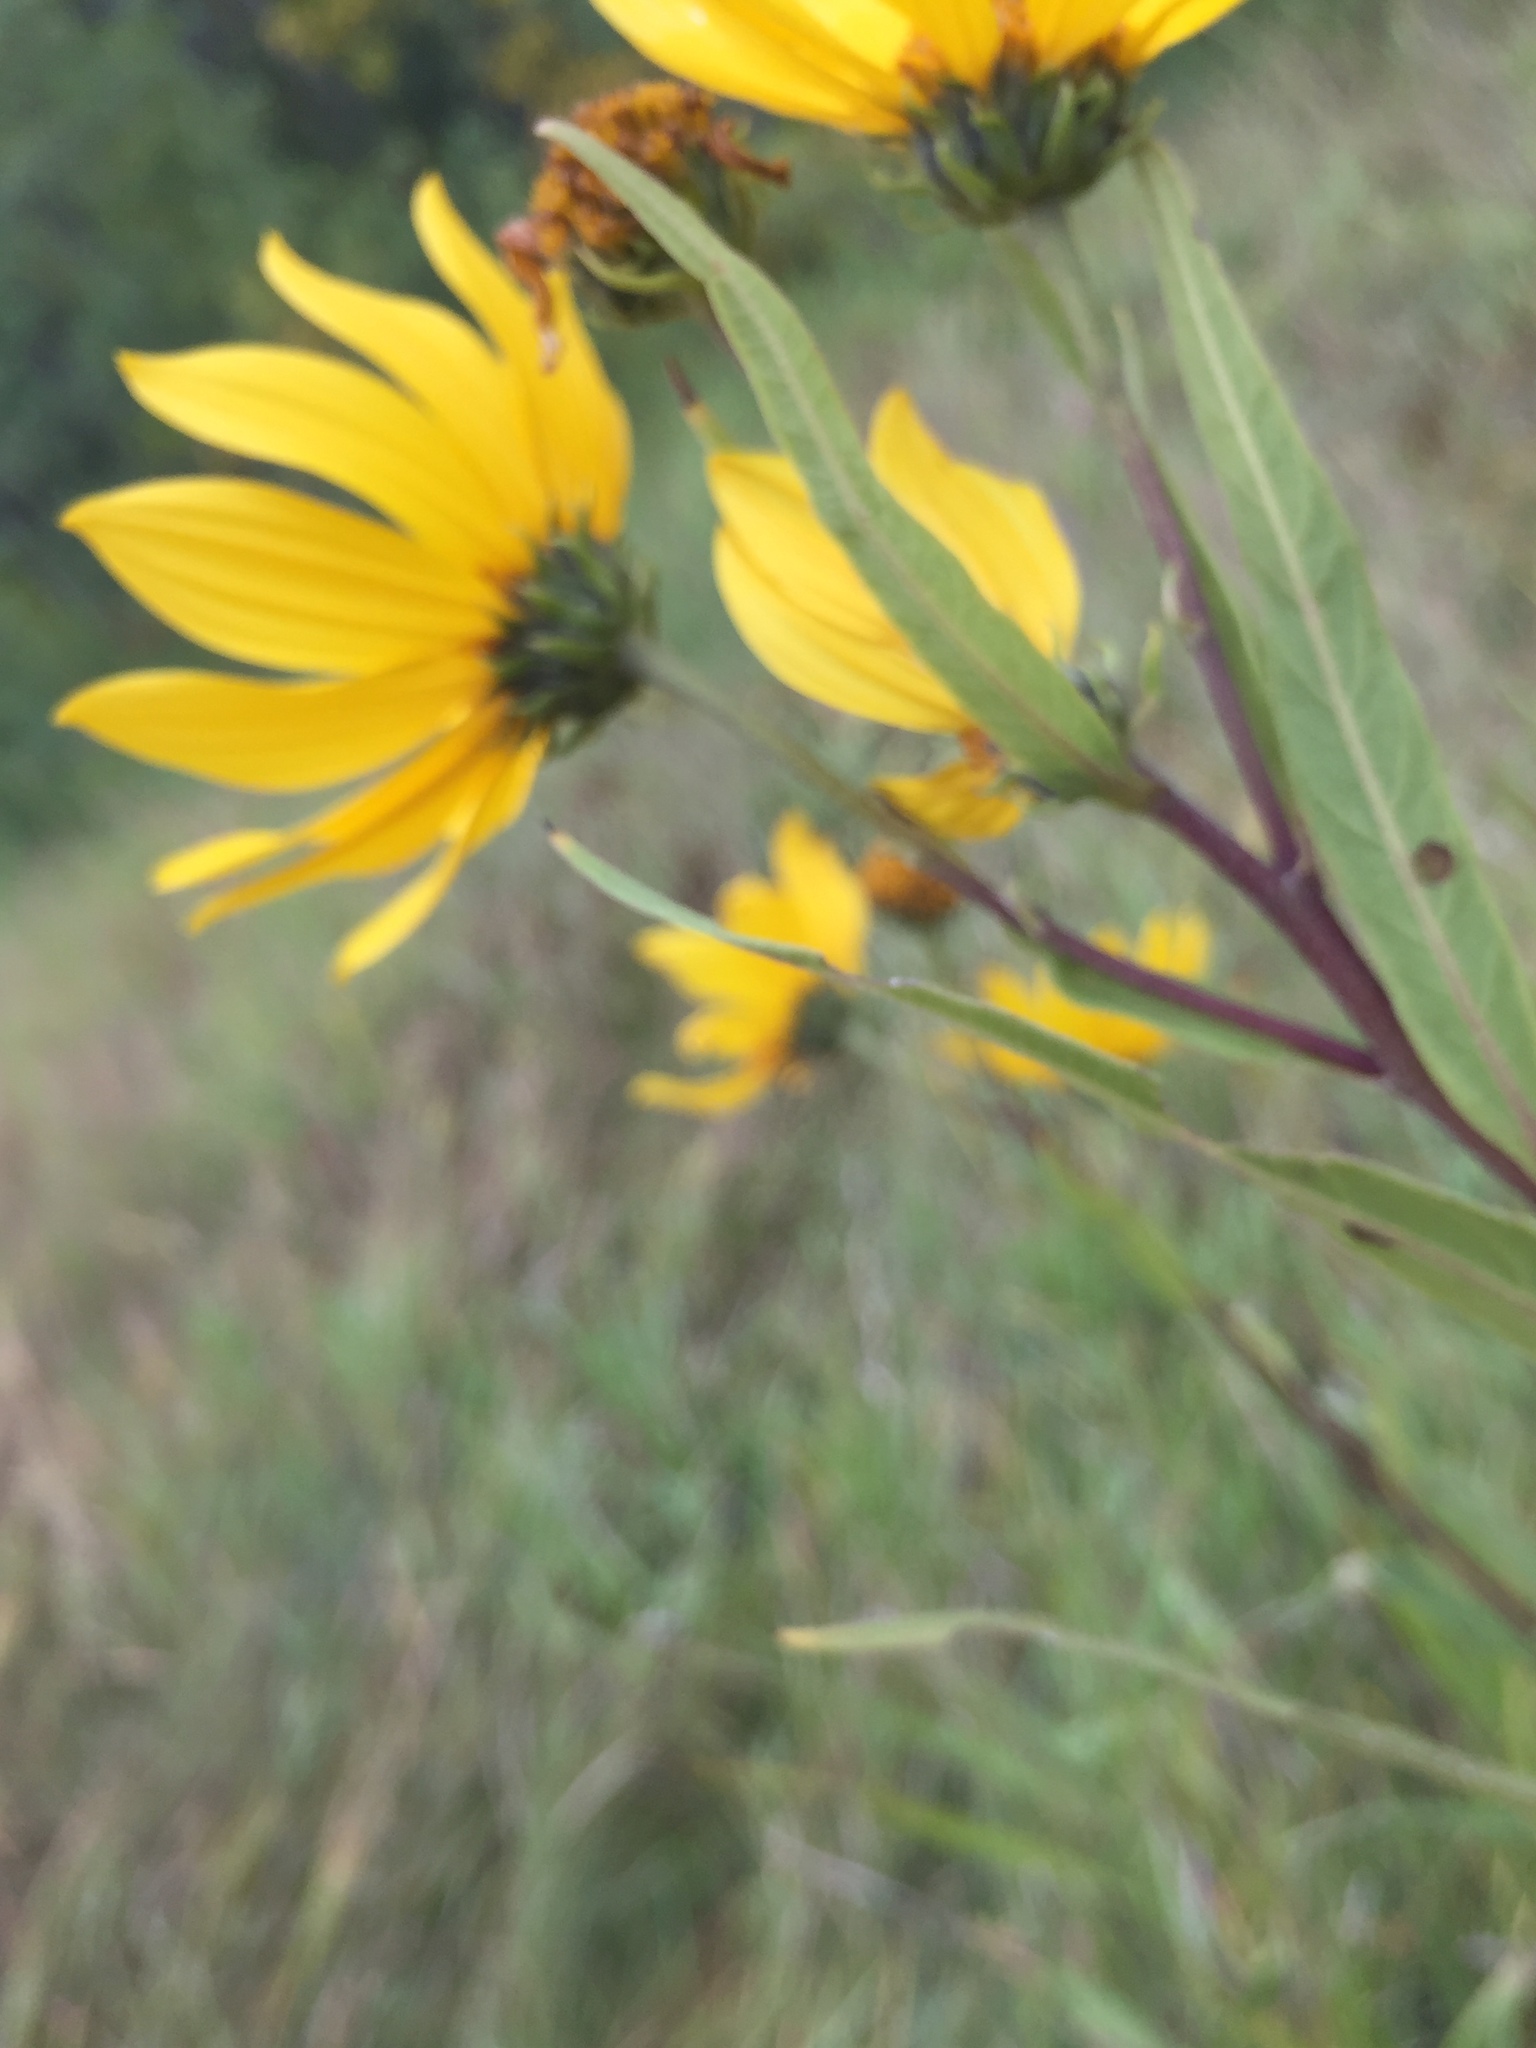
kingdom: Plantae
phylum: Tracheophyta
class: Magnoliopsida
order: Asterales
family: Asteraceae
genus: Helianthus
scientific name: Helianthus nuttallii
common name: Nuttall's sunflower
